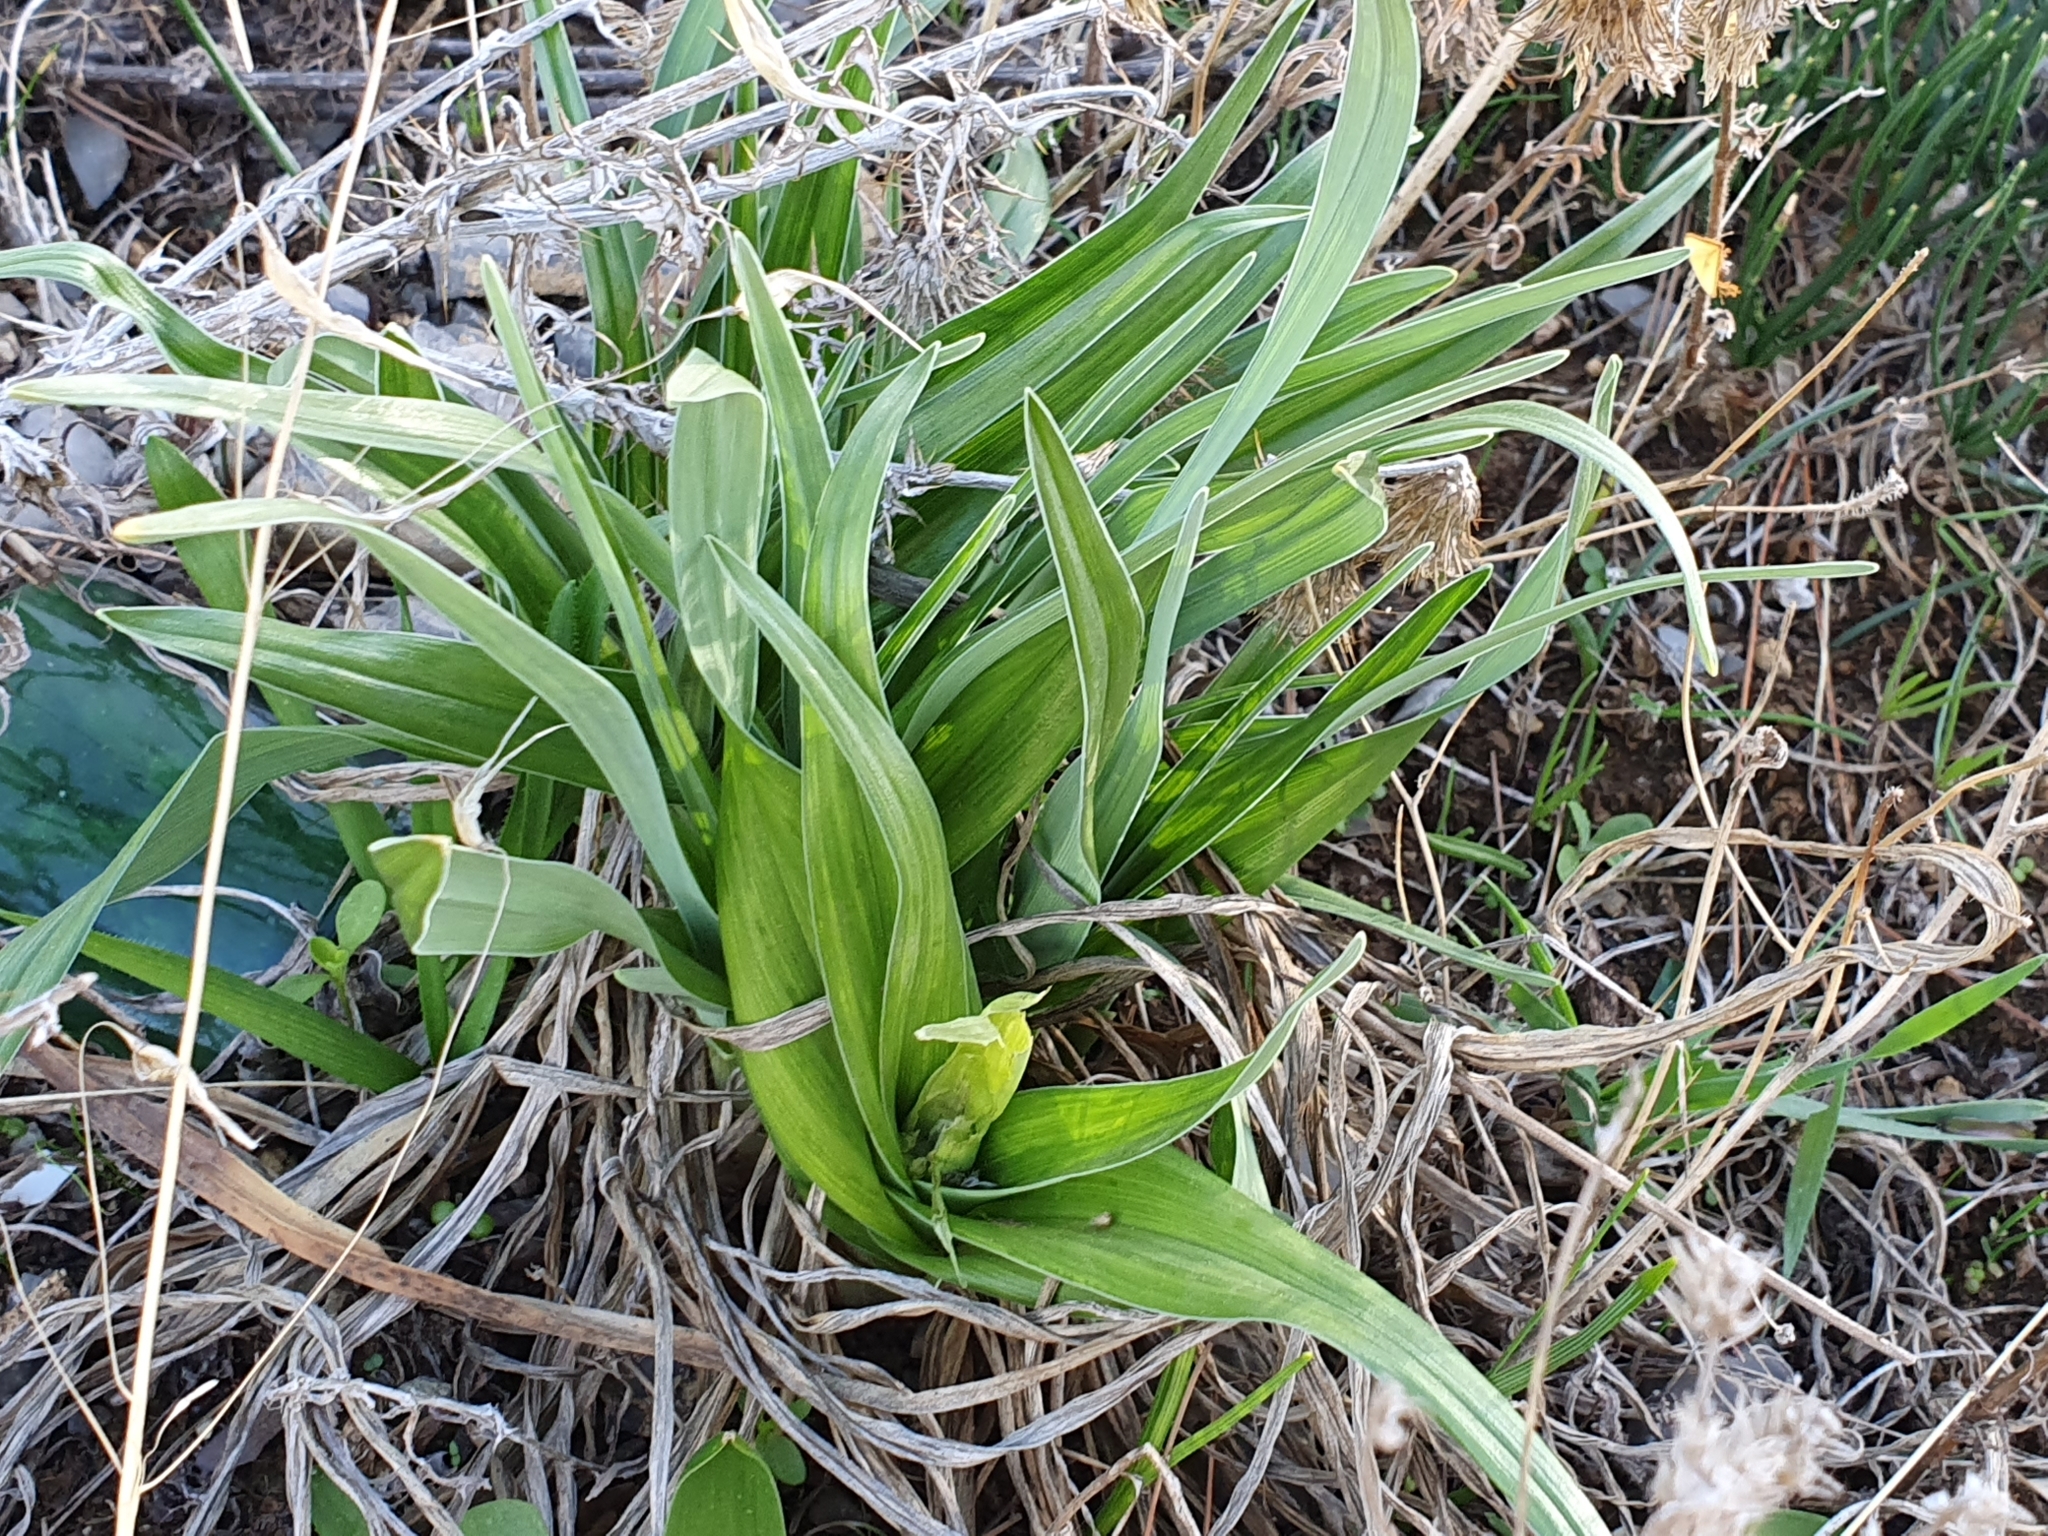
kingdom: Plantae
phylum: Tracheophyta
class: Liliopsida
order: Asparagales
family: Iridaceae
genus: Iris
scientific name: Iris planifolia
